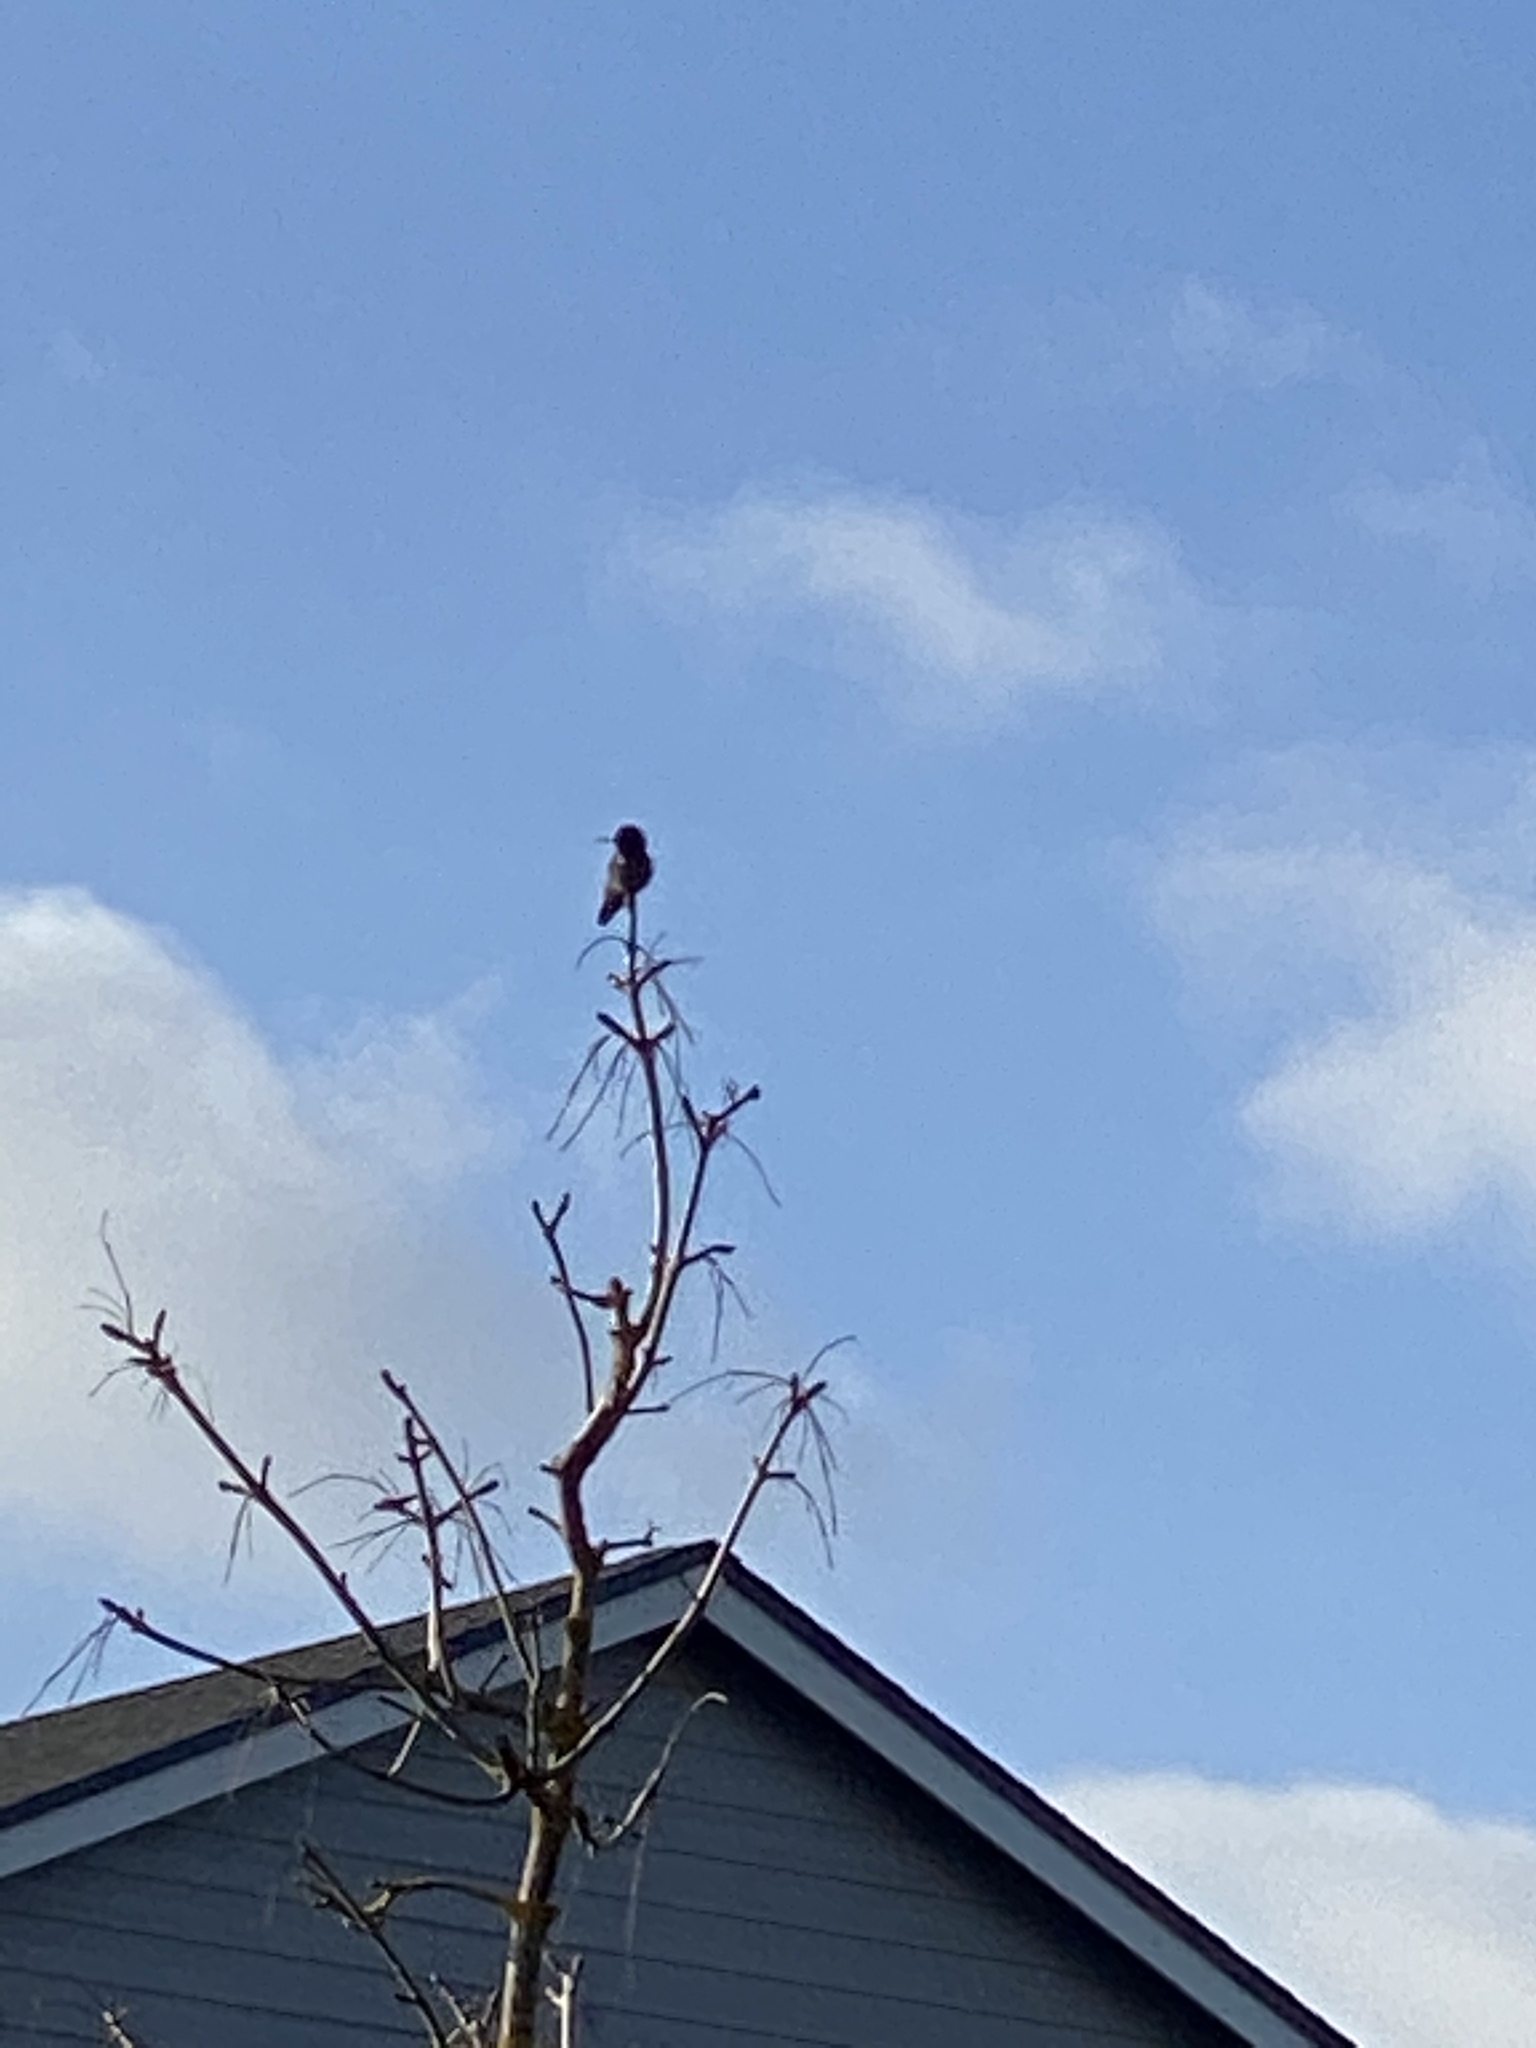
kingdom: Animalia
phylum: Chordata
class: Aves
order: Apodiformes
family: Trochilidae
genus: Calypte
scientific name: Calypte anna
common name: Anna's hummingbird
